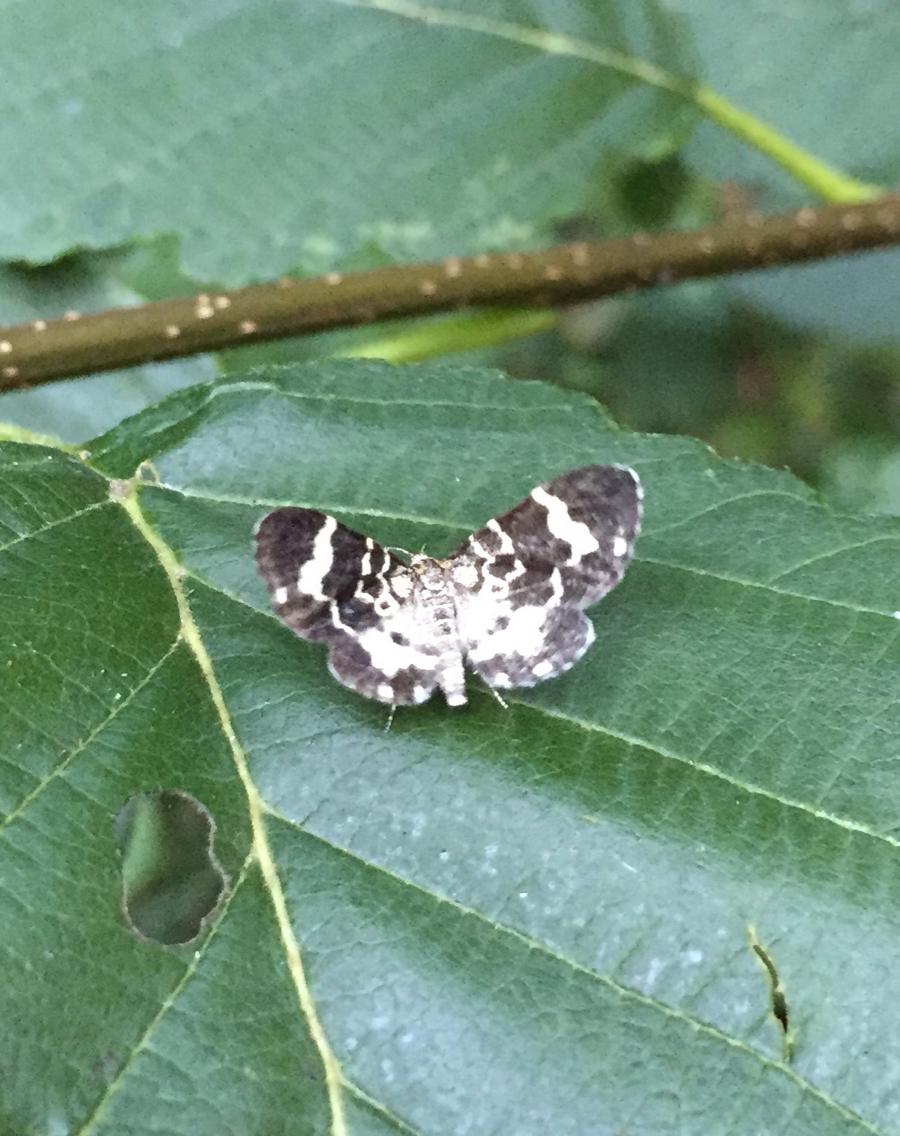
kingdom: Animalia
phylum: Arthropoda
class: Insecta
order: Lepidoptera
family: Geometridae
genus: Trichodezia
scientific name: Trichodezia californiata
